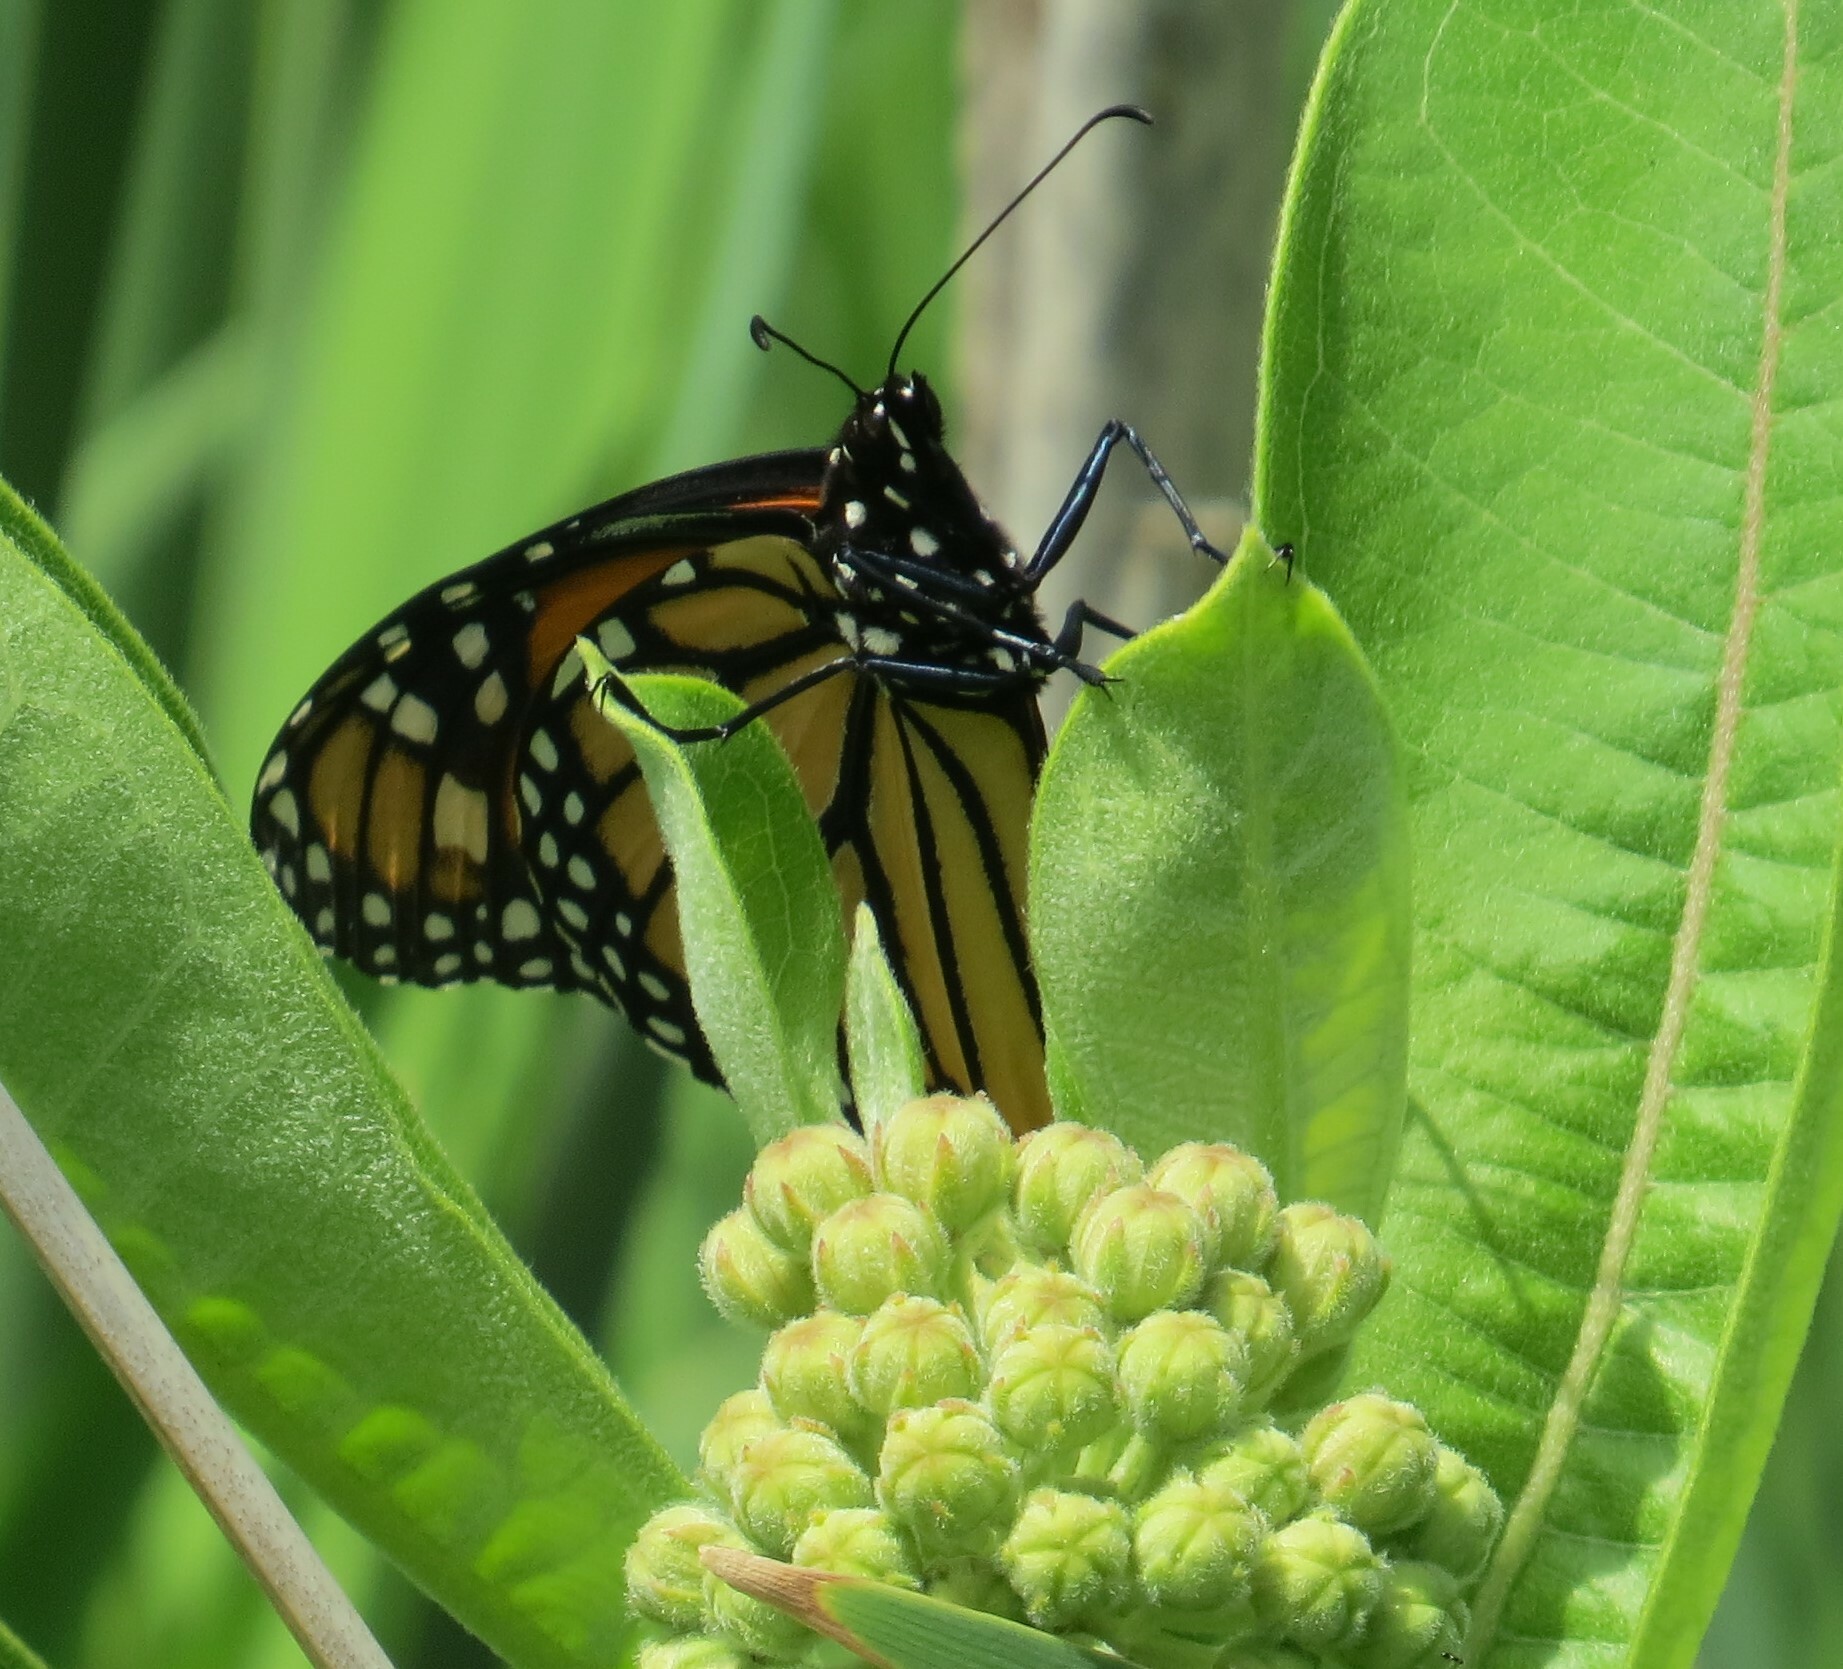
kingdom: Animalia
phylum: Arthropoda
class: Insecta
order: Lepidoptera
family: Nymphalidae
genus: Danaus
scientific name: Danaus plexippus
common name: Monarch
